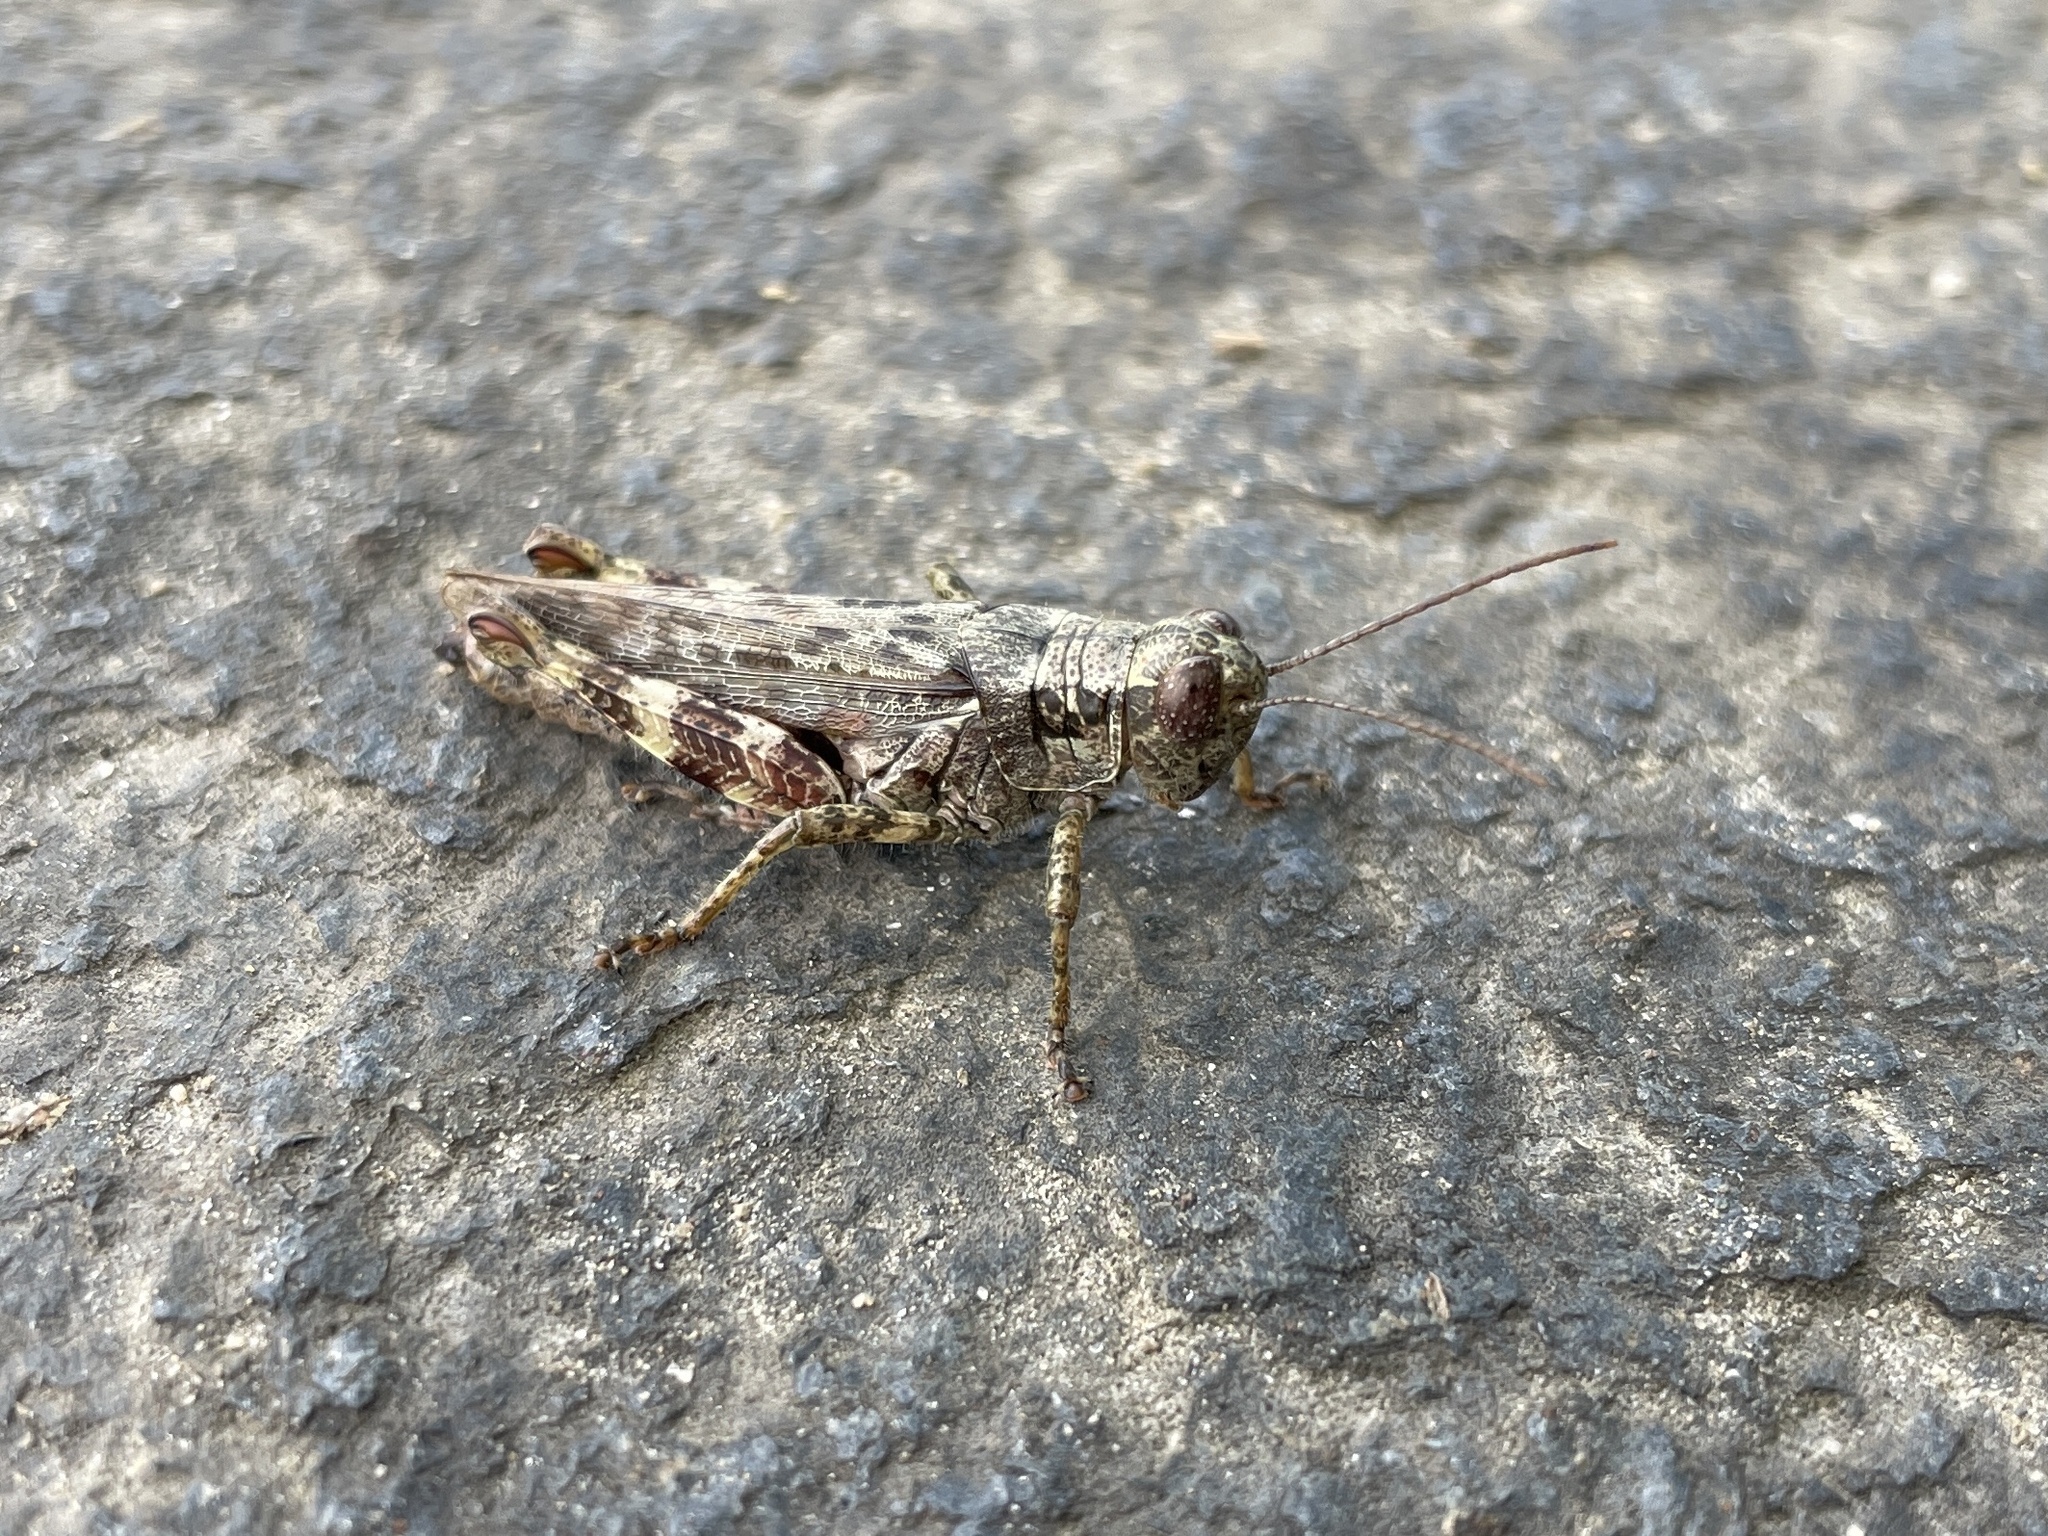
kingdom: Animalia
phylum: Arthropoda
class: Insecta
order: Orthoptera
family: Acrididae
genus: Melanoplus
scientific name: Melanoplus punctulatus
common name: Pine-tree spur-throat grasshopper
